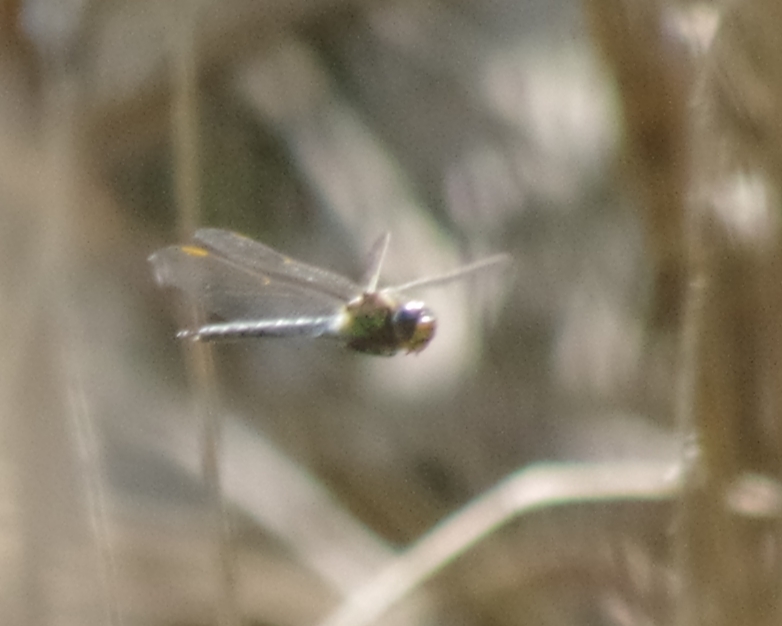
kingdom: Animalia
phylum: Arthropoda
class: Insecta
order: Odonata
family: Aeshnidae
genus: Brachytron
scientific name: Brachytron pratense
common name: Hairy hawker
